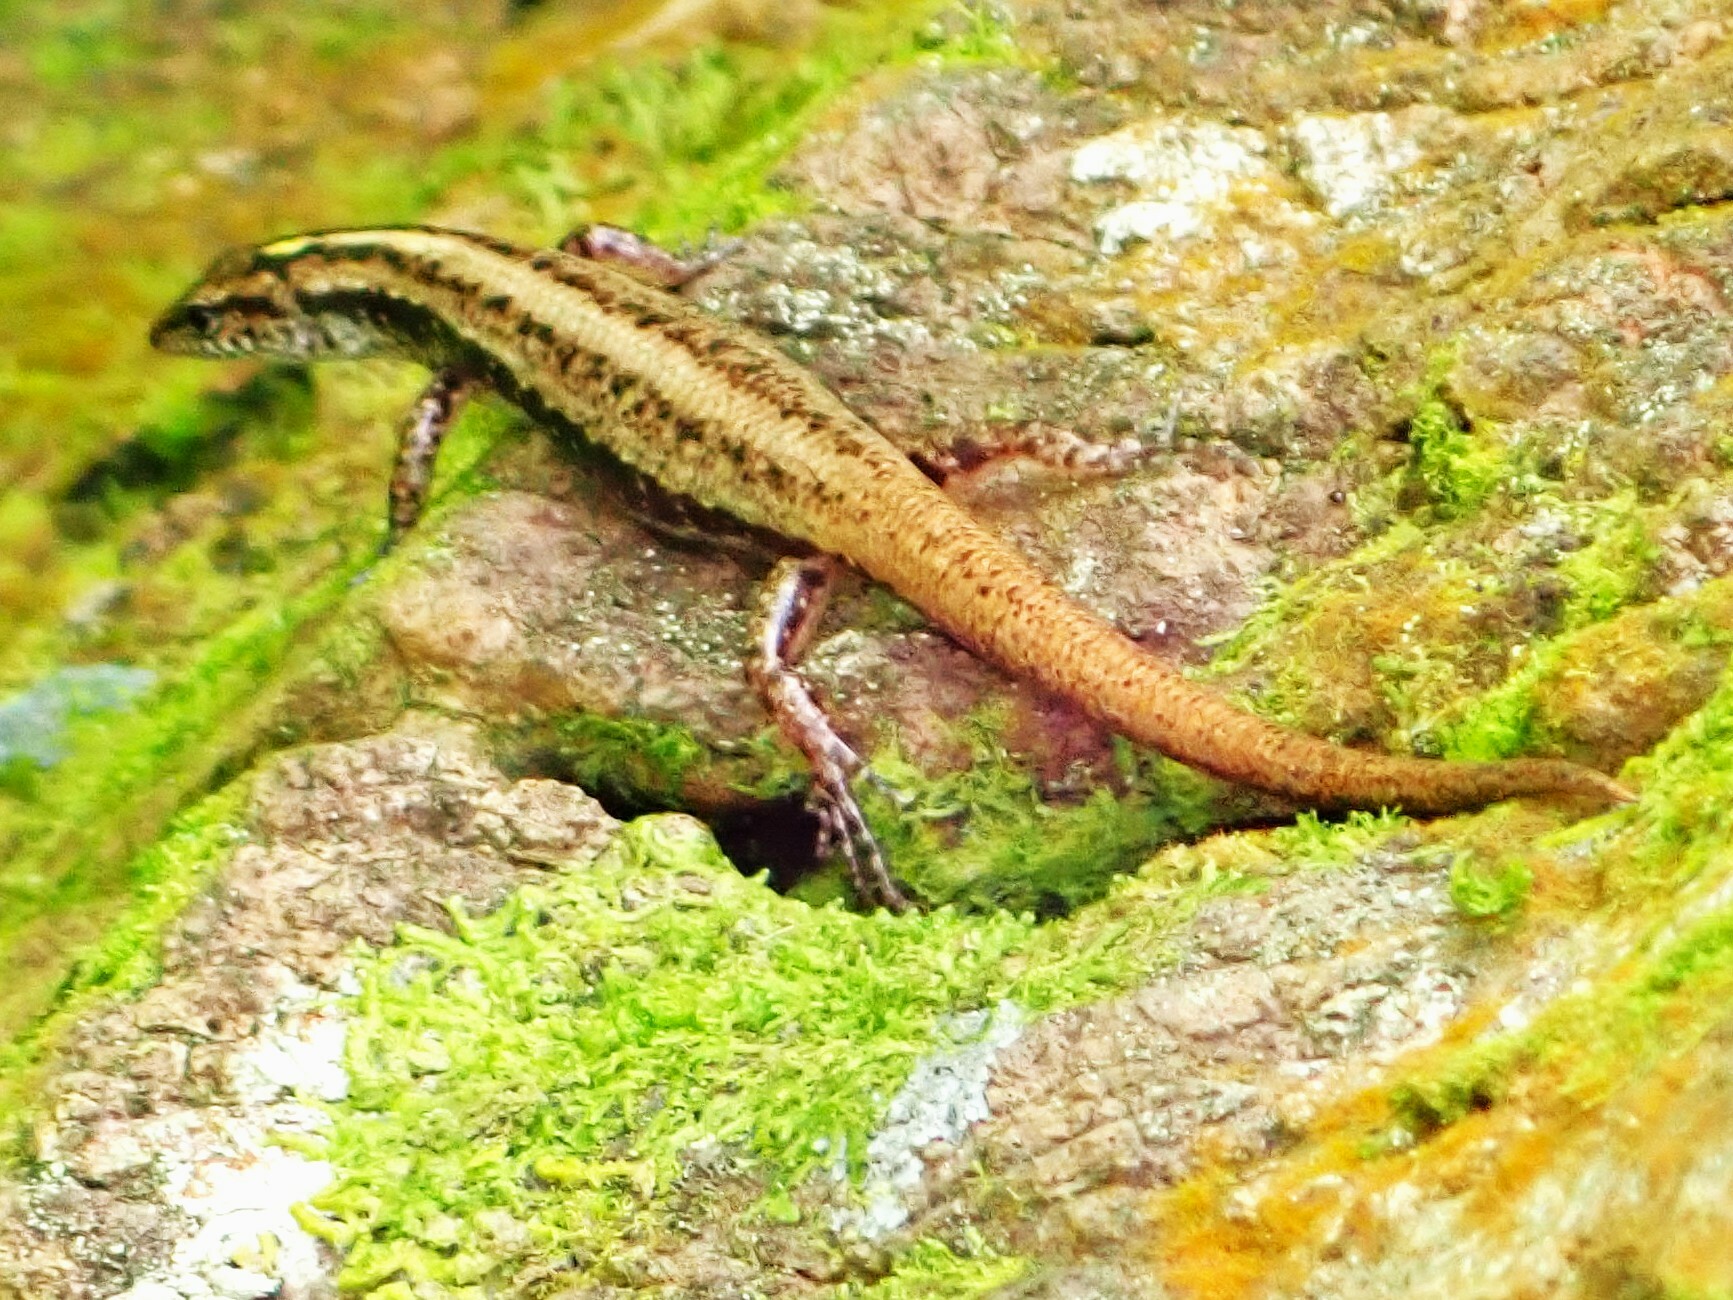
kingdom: Animalia
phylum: Chordata
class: Squamata
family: Scincidae
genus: Ornithuroscincus
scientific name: Ornithuroscincus noctua
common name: Moth skink
